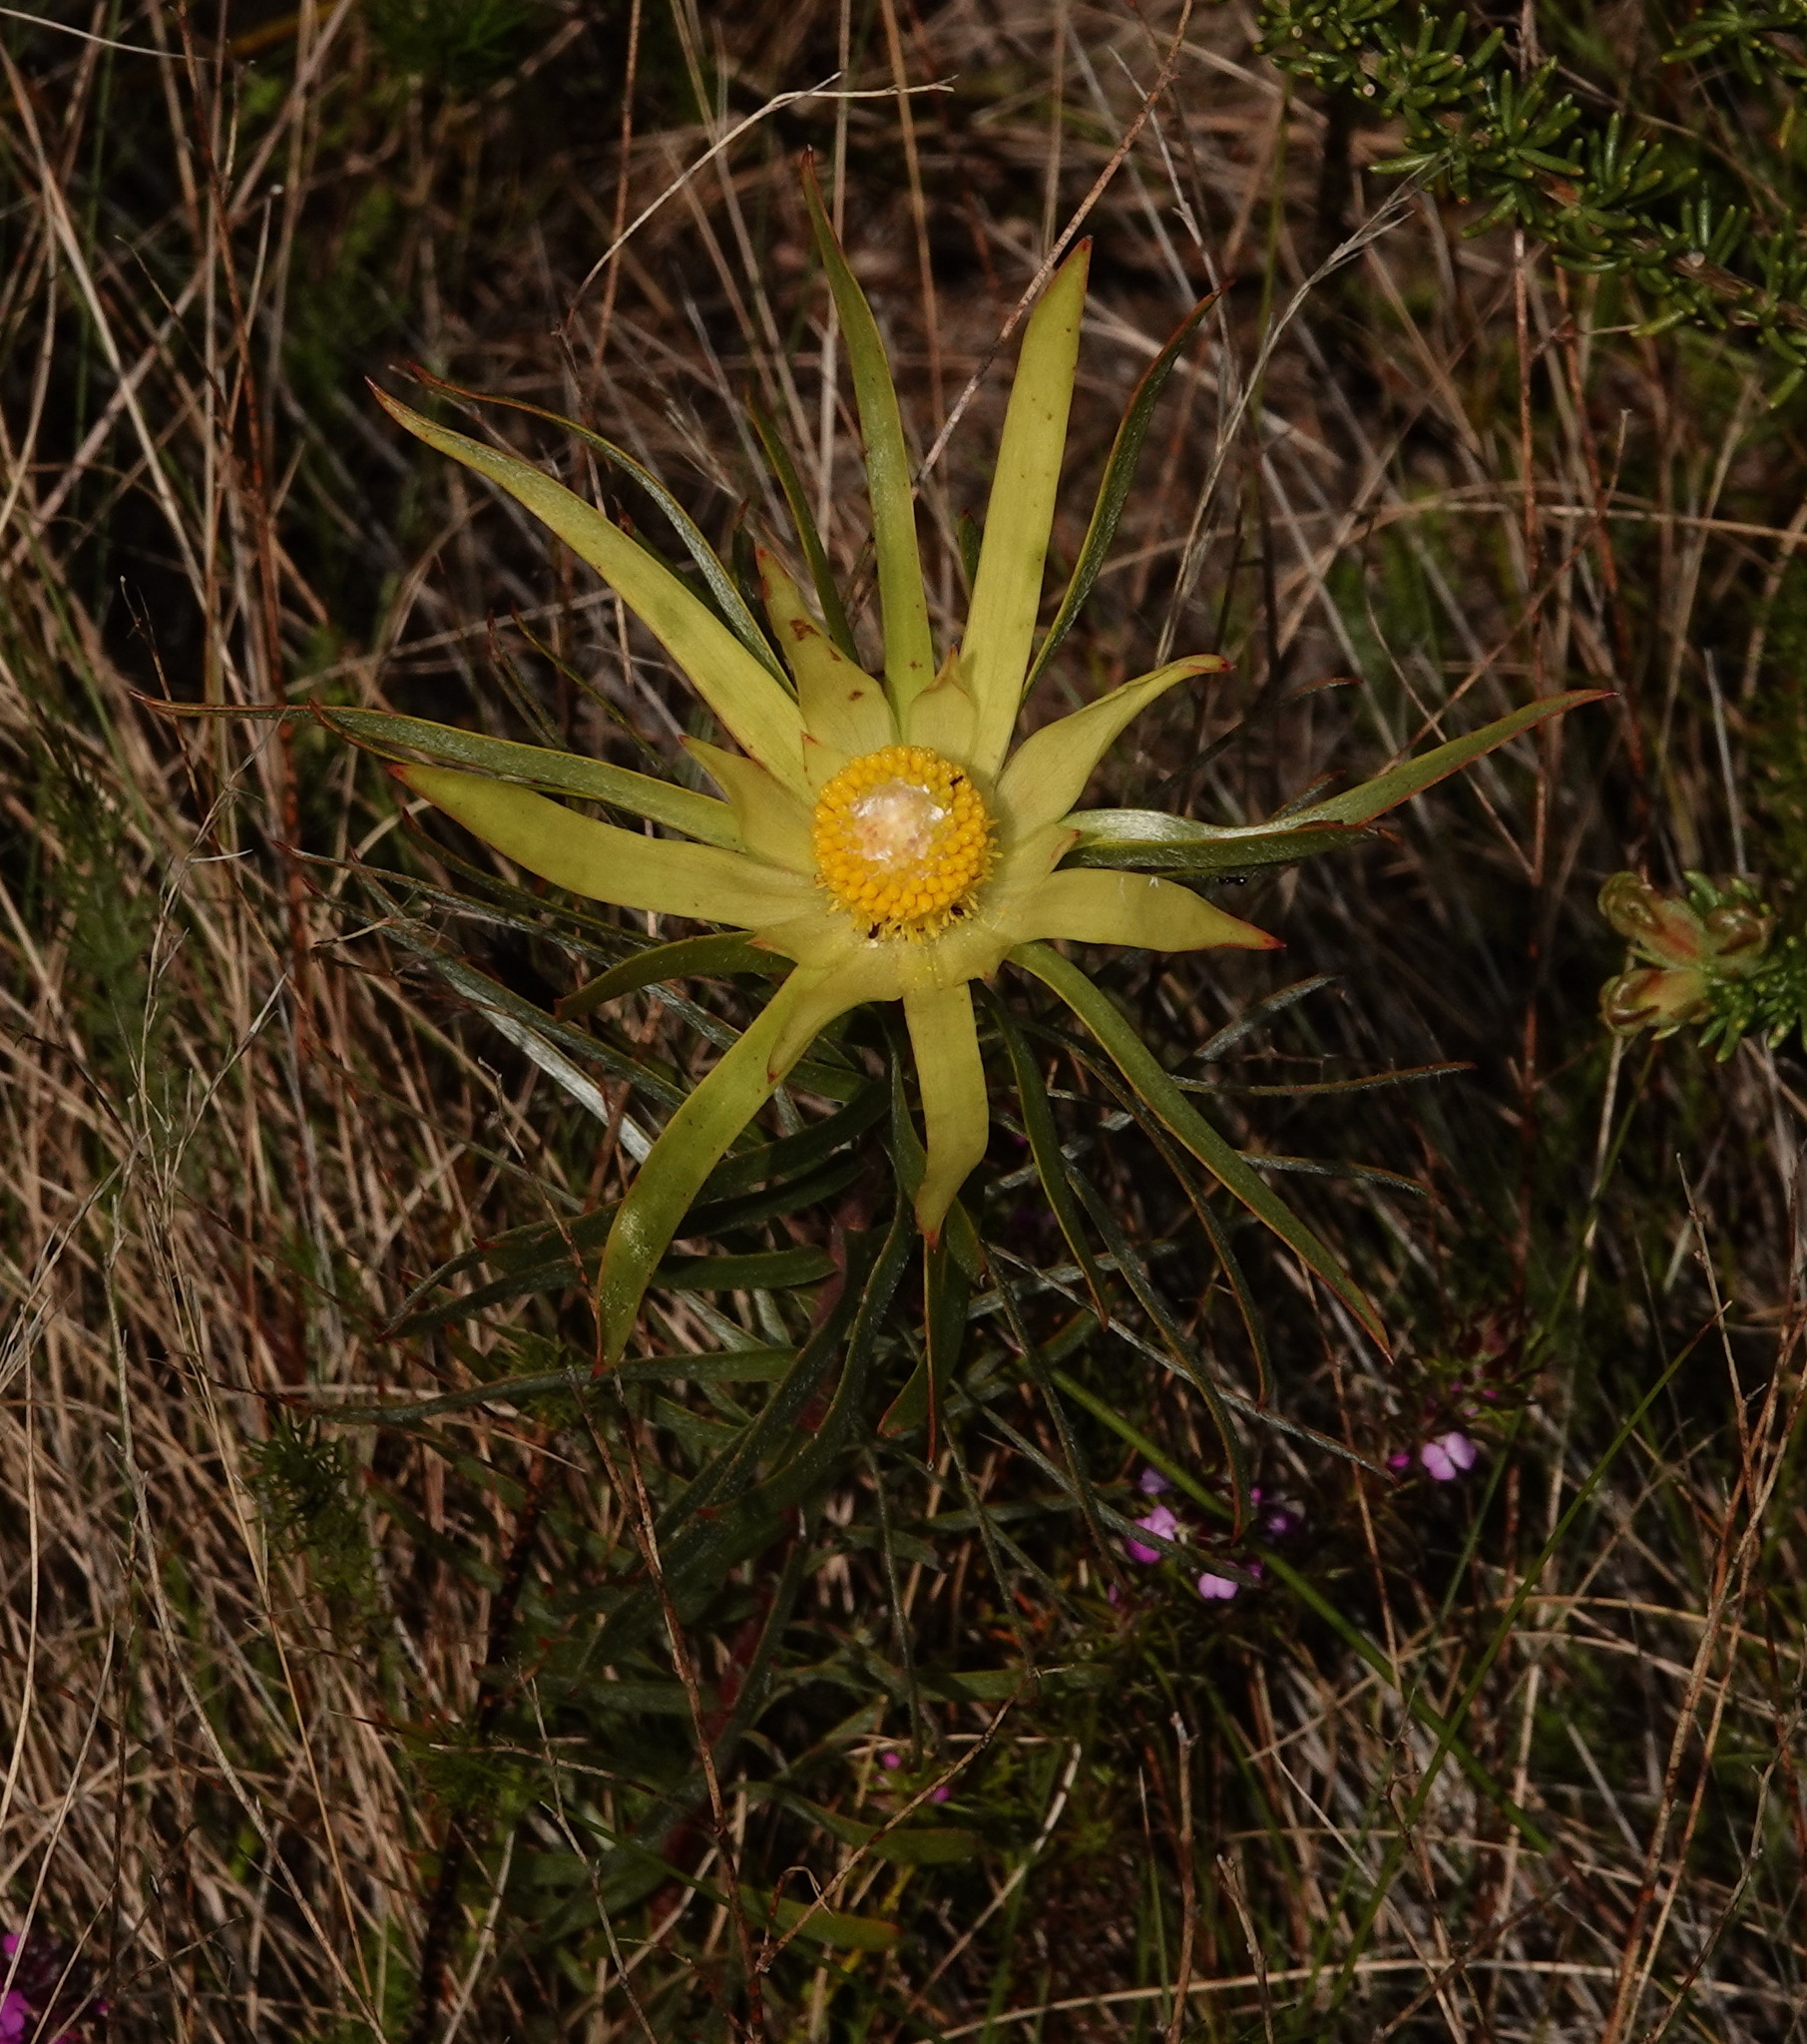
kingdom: Plantae
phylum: Tracheophyta
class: Magnoliopsida
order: Proteales
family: Proteaceae
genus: Leucadendron
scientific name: Leucadendron xanthoconus
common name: Sickle-leaf conebush
